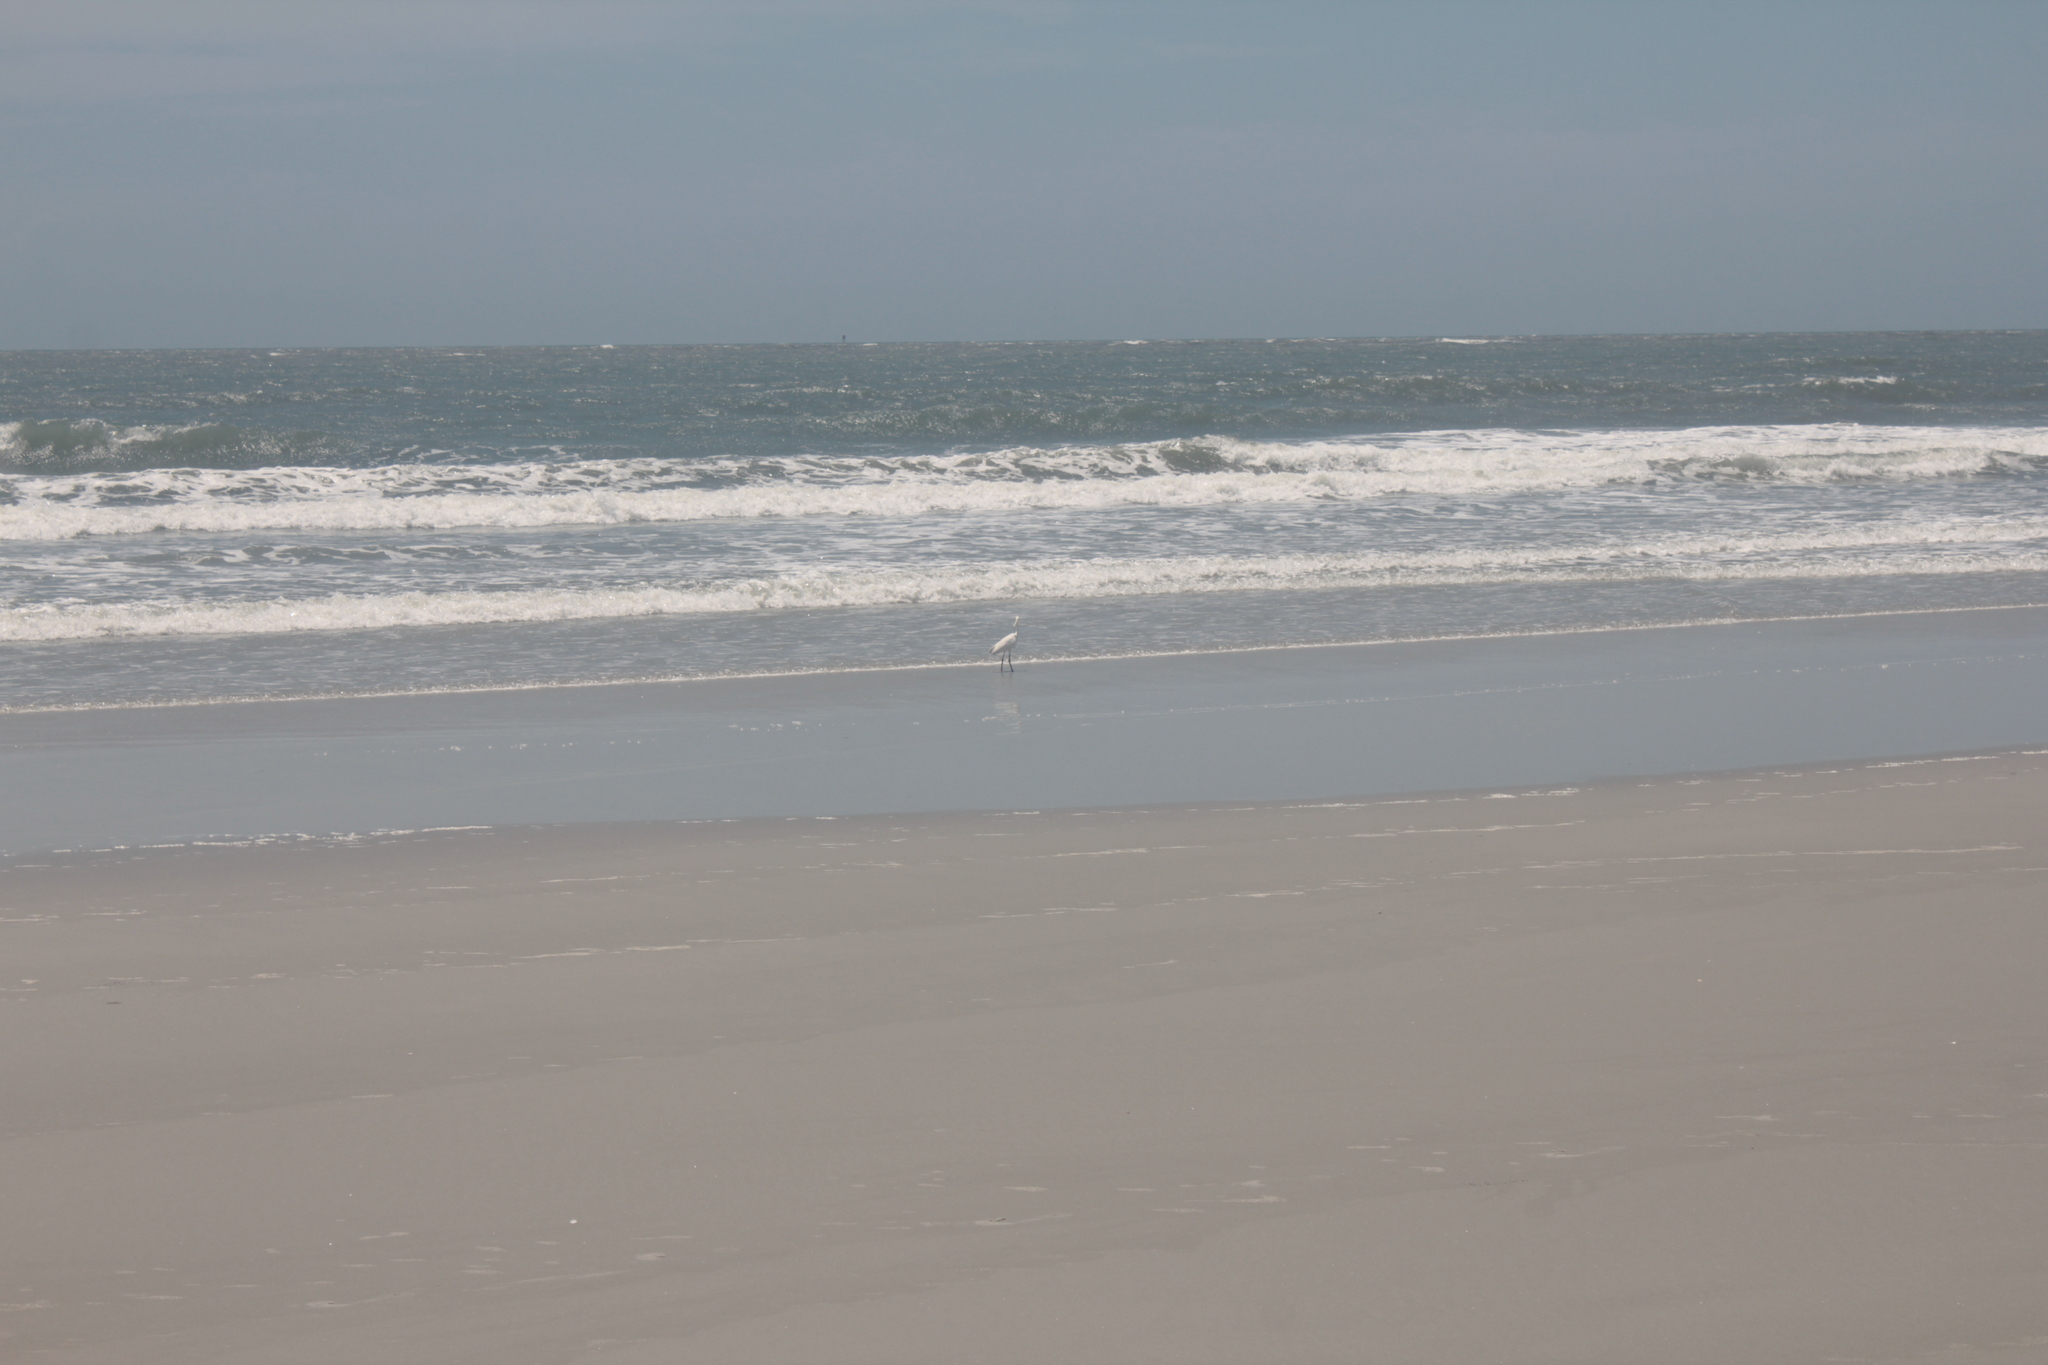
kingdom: Animalia
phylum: Chordata
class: Aves
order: Pelecaniformes
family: Ardeidae
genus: Egretta
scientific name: Egretta thula
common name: Snowy egret
